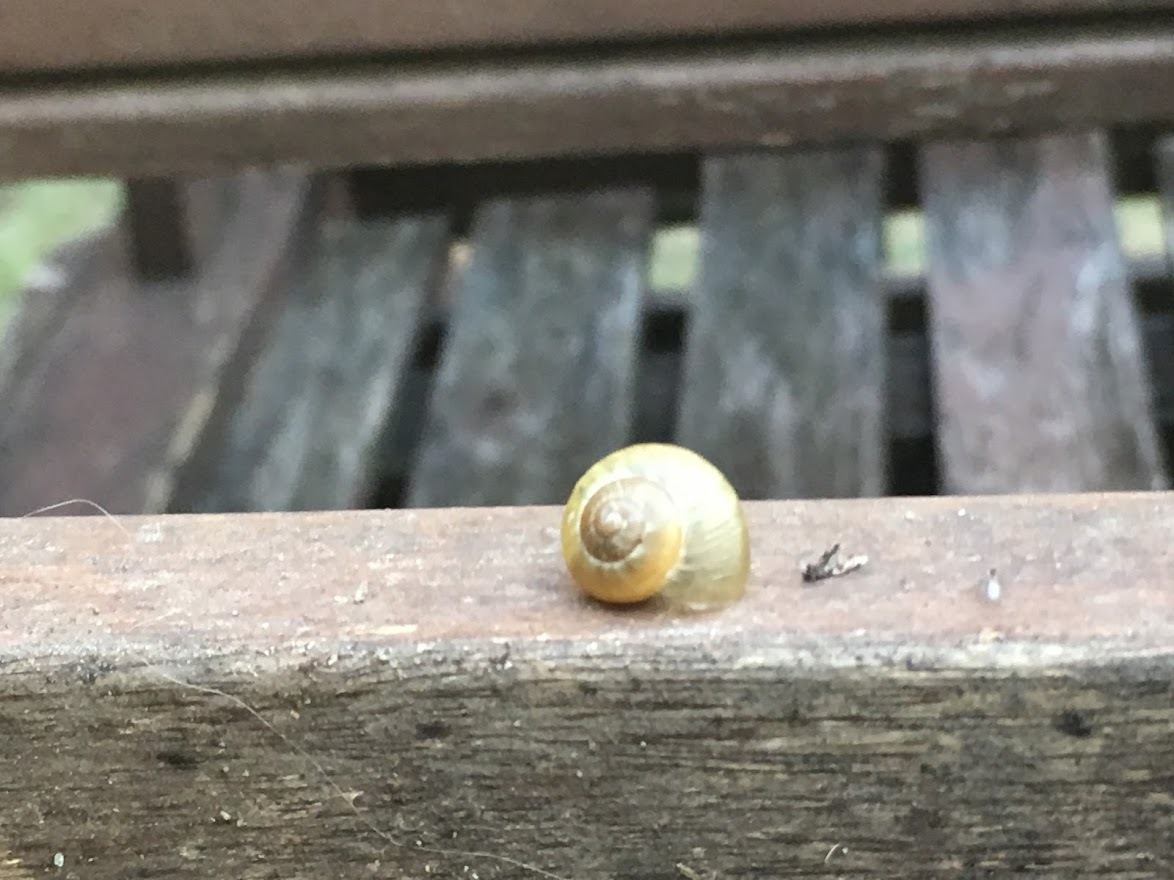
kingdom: Animalia
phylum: Mollusca
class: Gastropoda
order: Stylommatophora
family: Helicidae
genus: Cepaea
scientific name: Cepaea nemoralis
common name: Grovesnail
